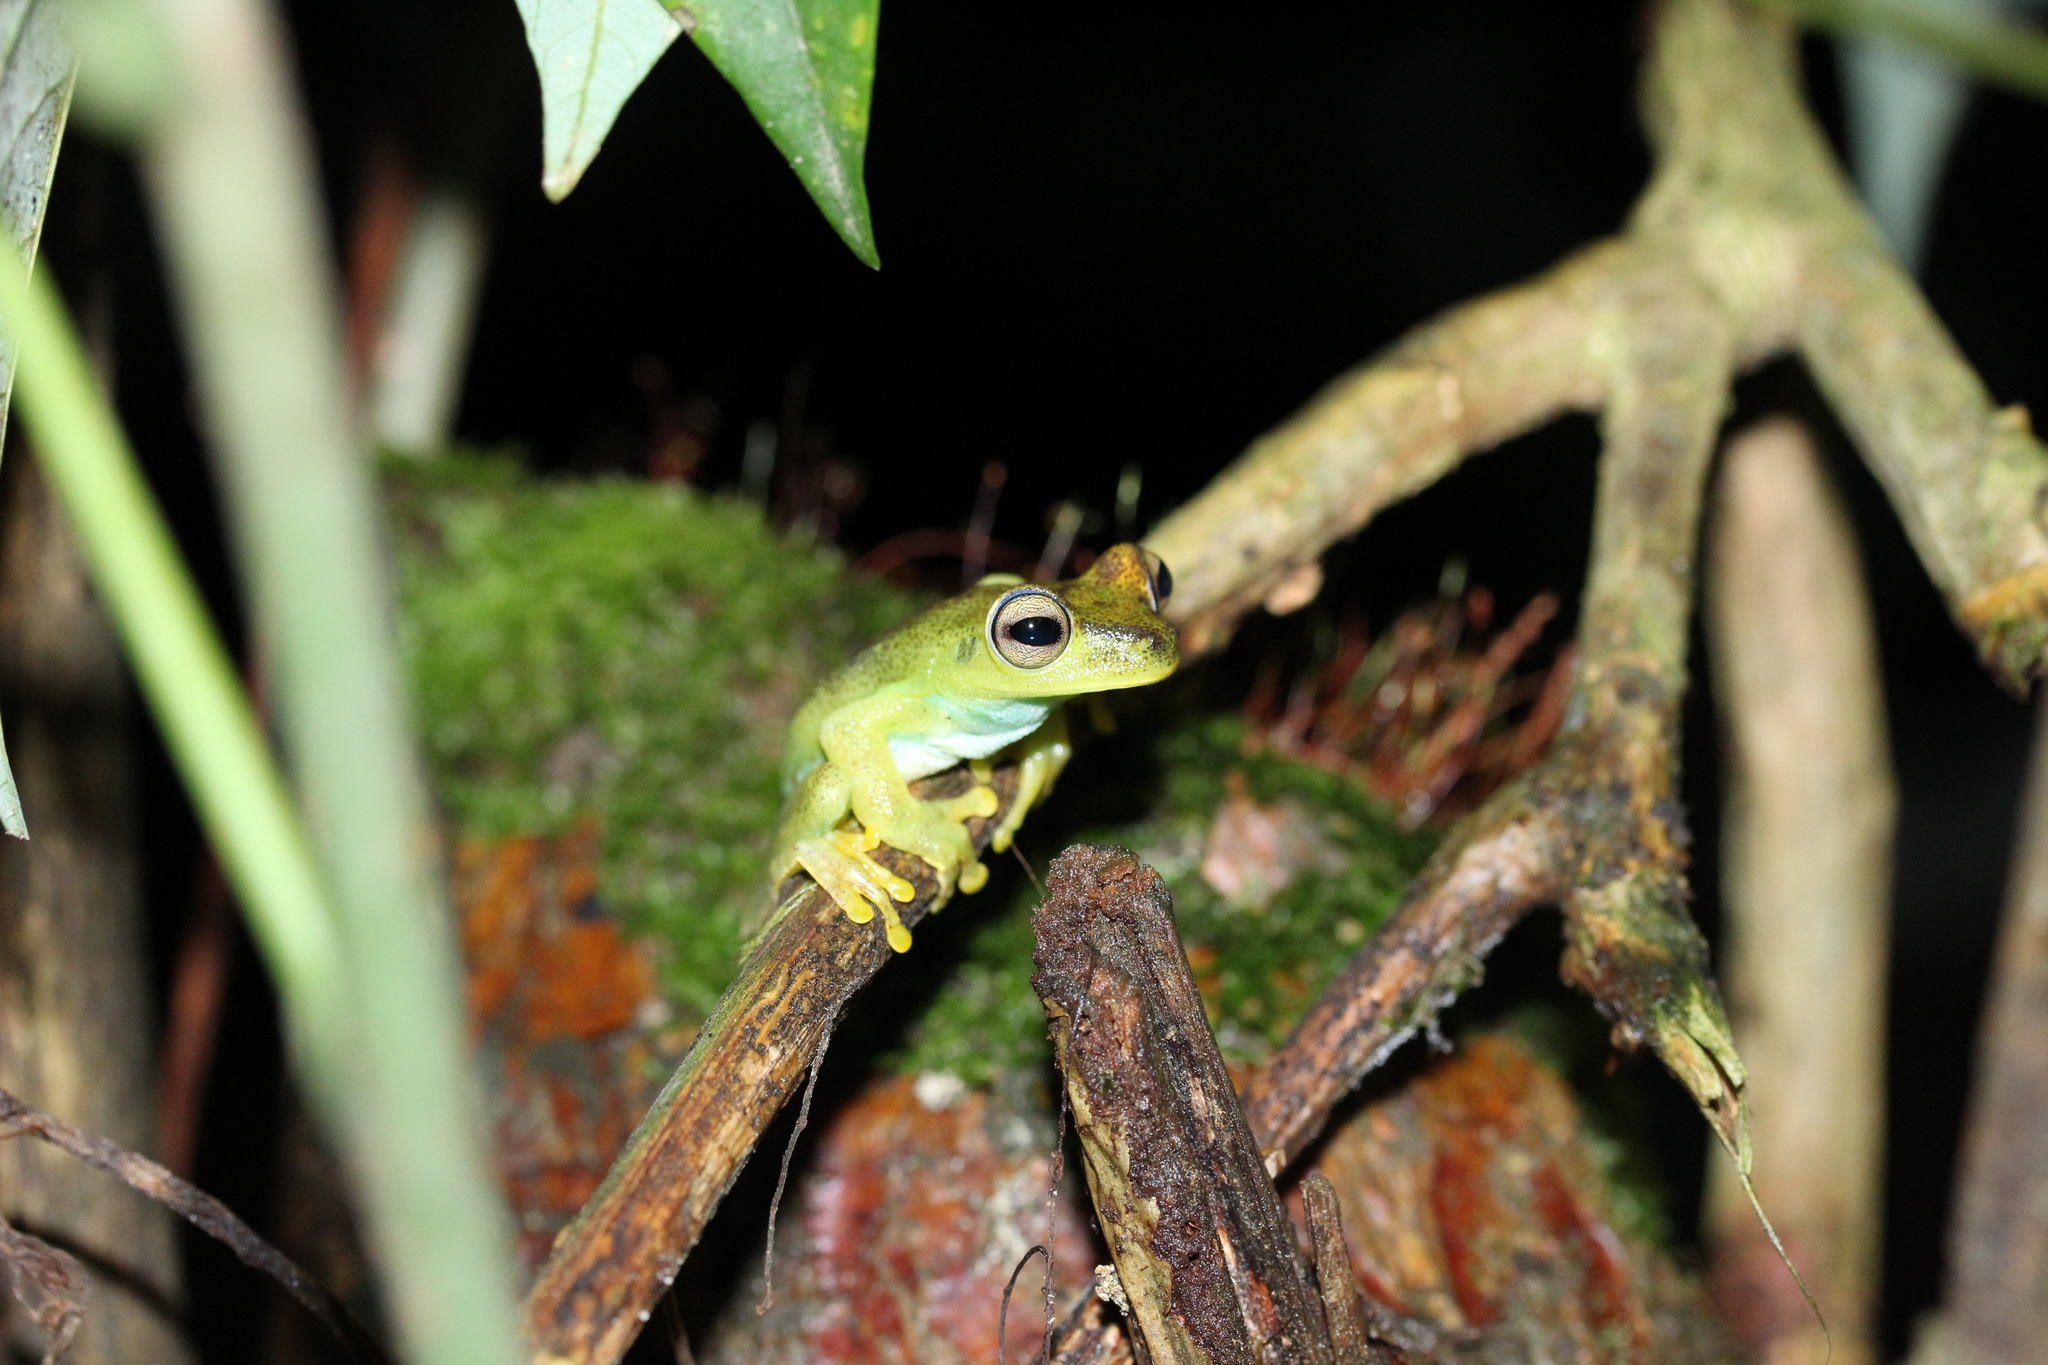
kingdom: Animalia
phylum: Chordata
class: Amphibia
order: Anura
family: Hylidae
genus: Boana
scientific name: Boana pellucens
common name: Palmar treefrog
